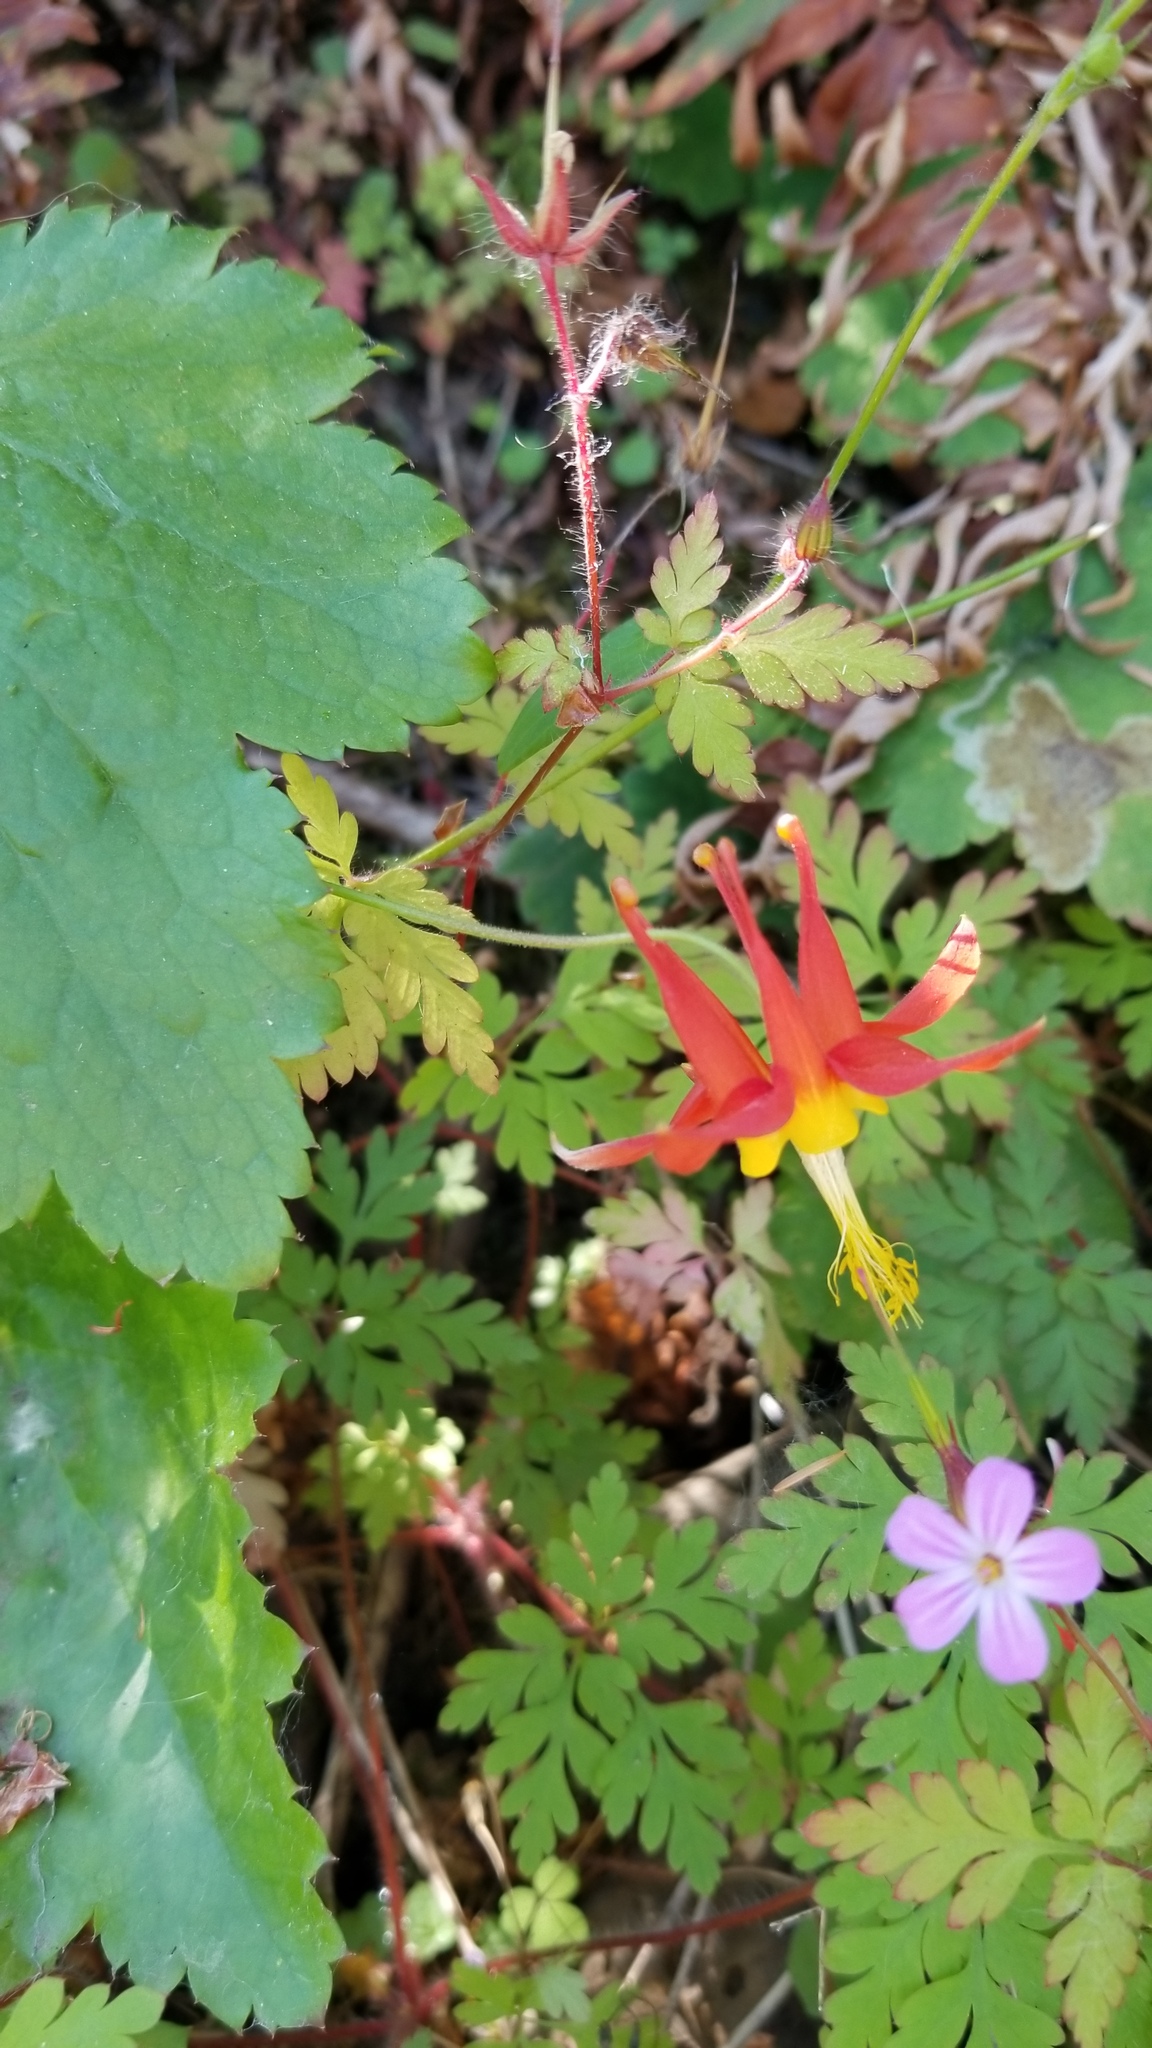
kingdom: Plantae
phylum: Tracheophyta
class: Magnoliopsida
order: Ranunculales
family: Ranunculaceae
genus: Aquilegia
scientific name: Aquilegia formosa
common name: Sitka columbine
